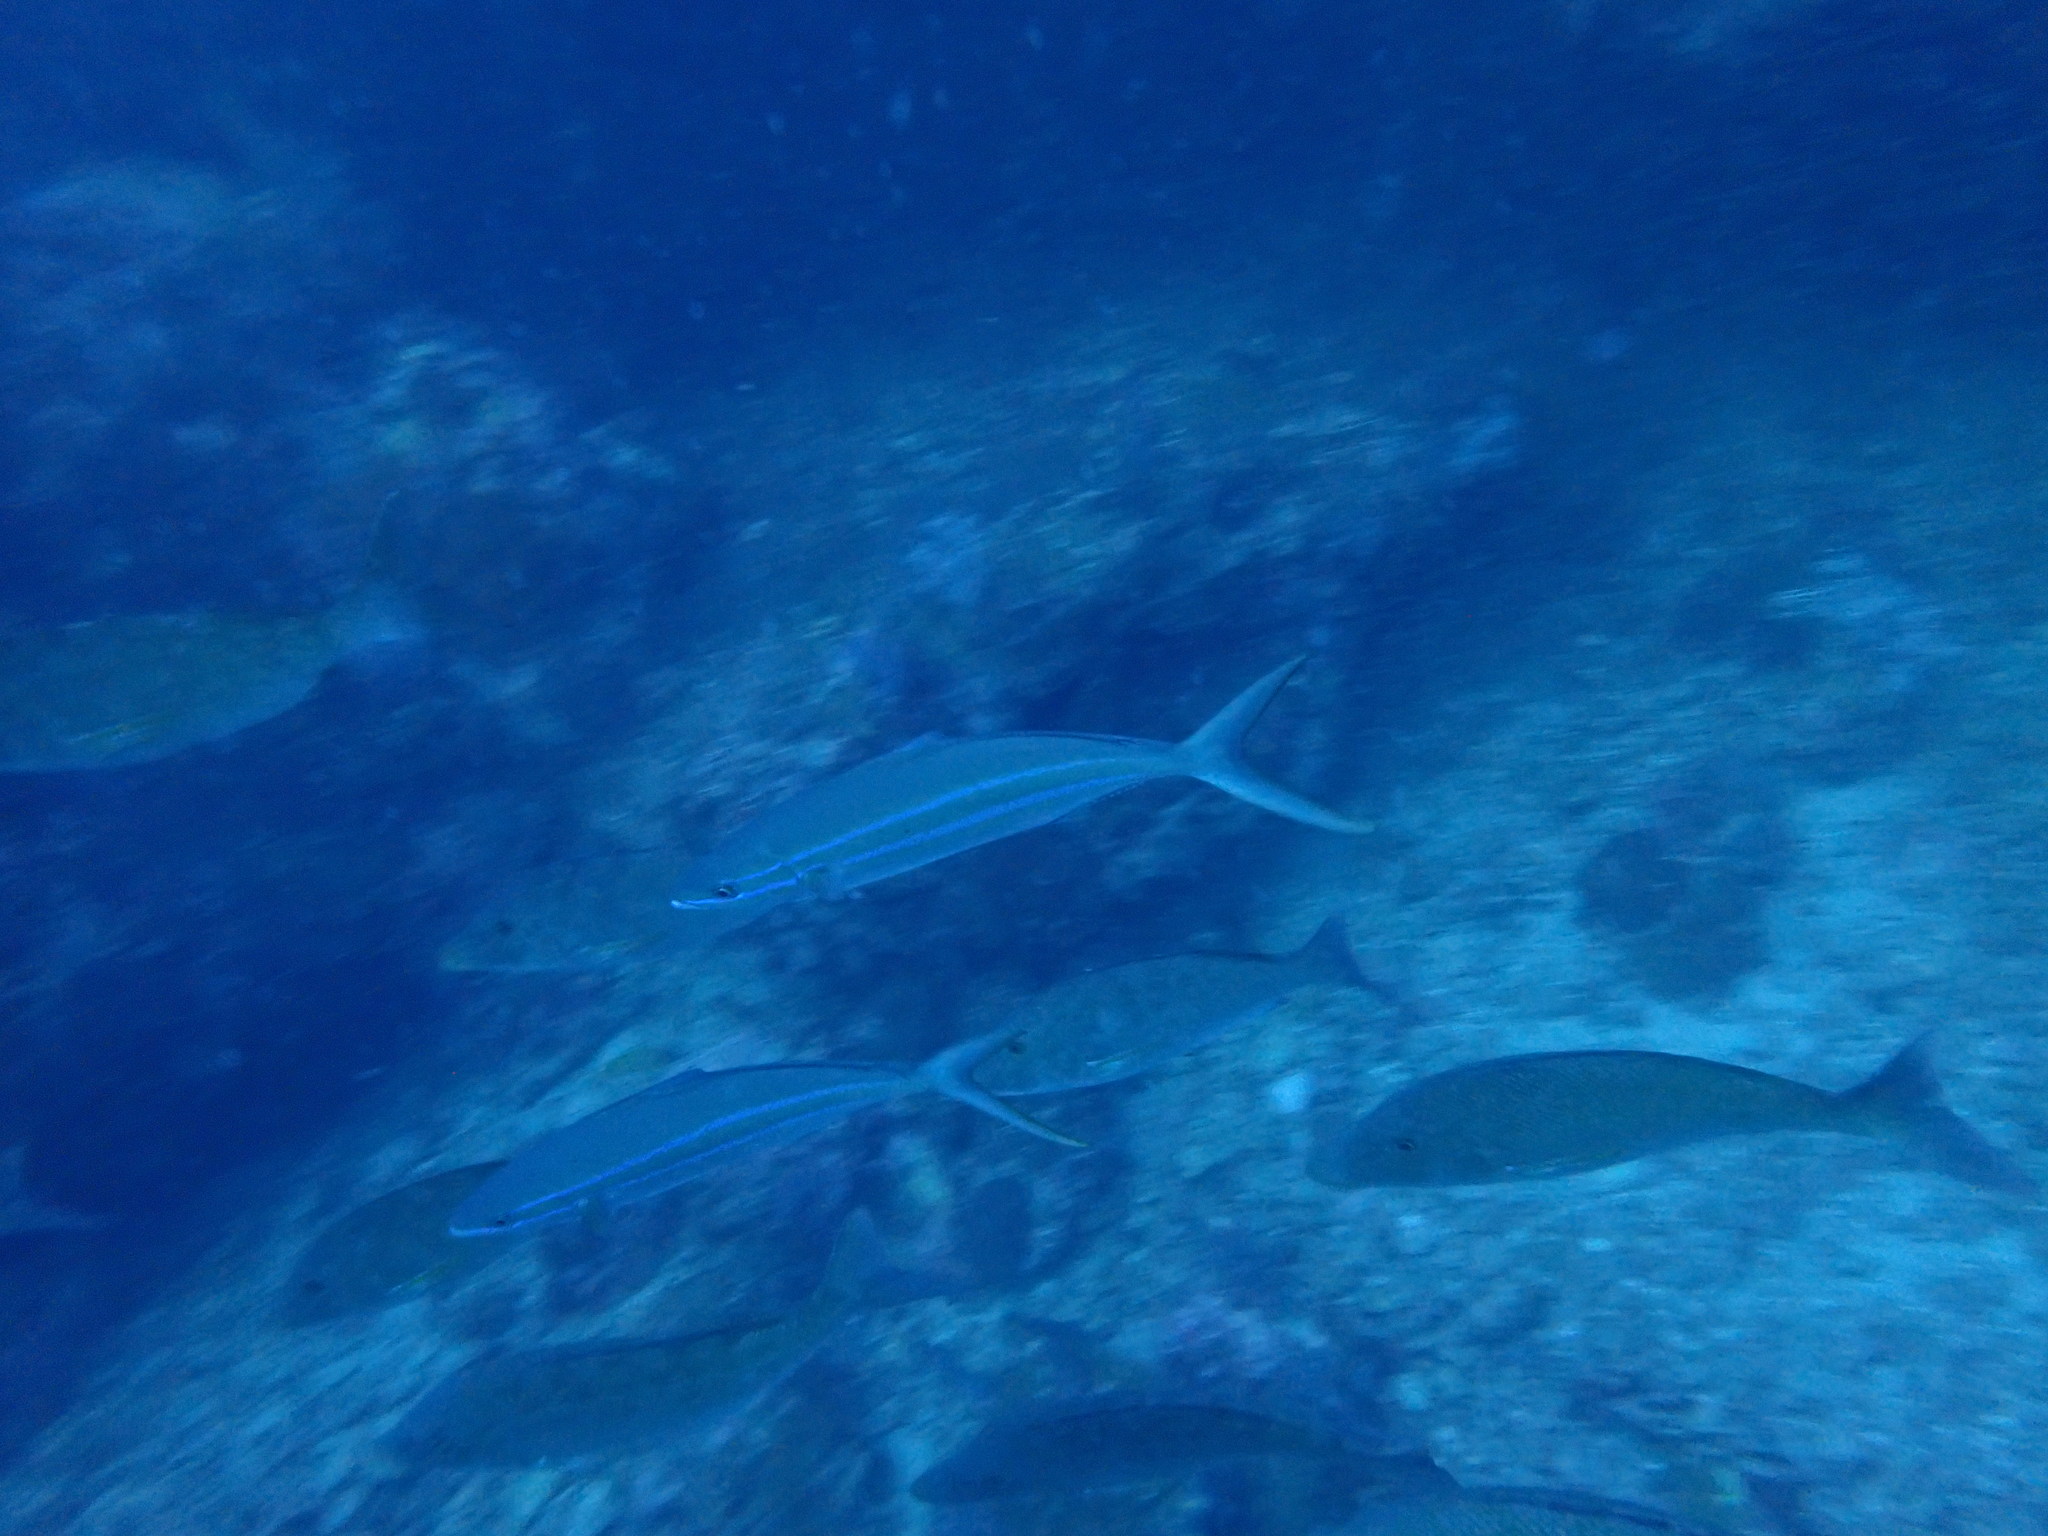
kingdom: Animalia
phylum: Chordata
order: Perciformes
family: Carangidae
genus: Elagatis
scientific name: Elagatis bipinnulata
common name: Rainbow runner
